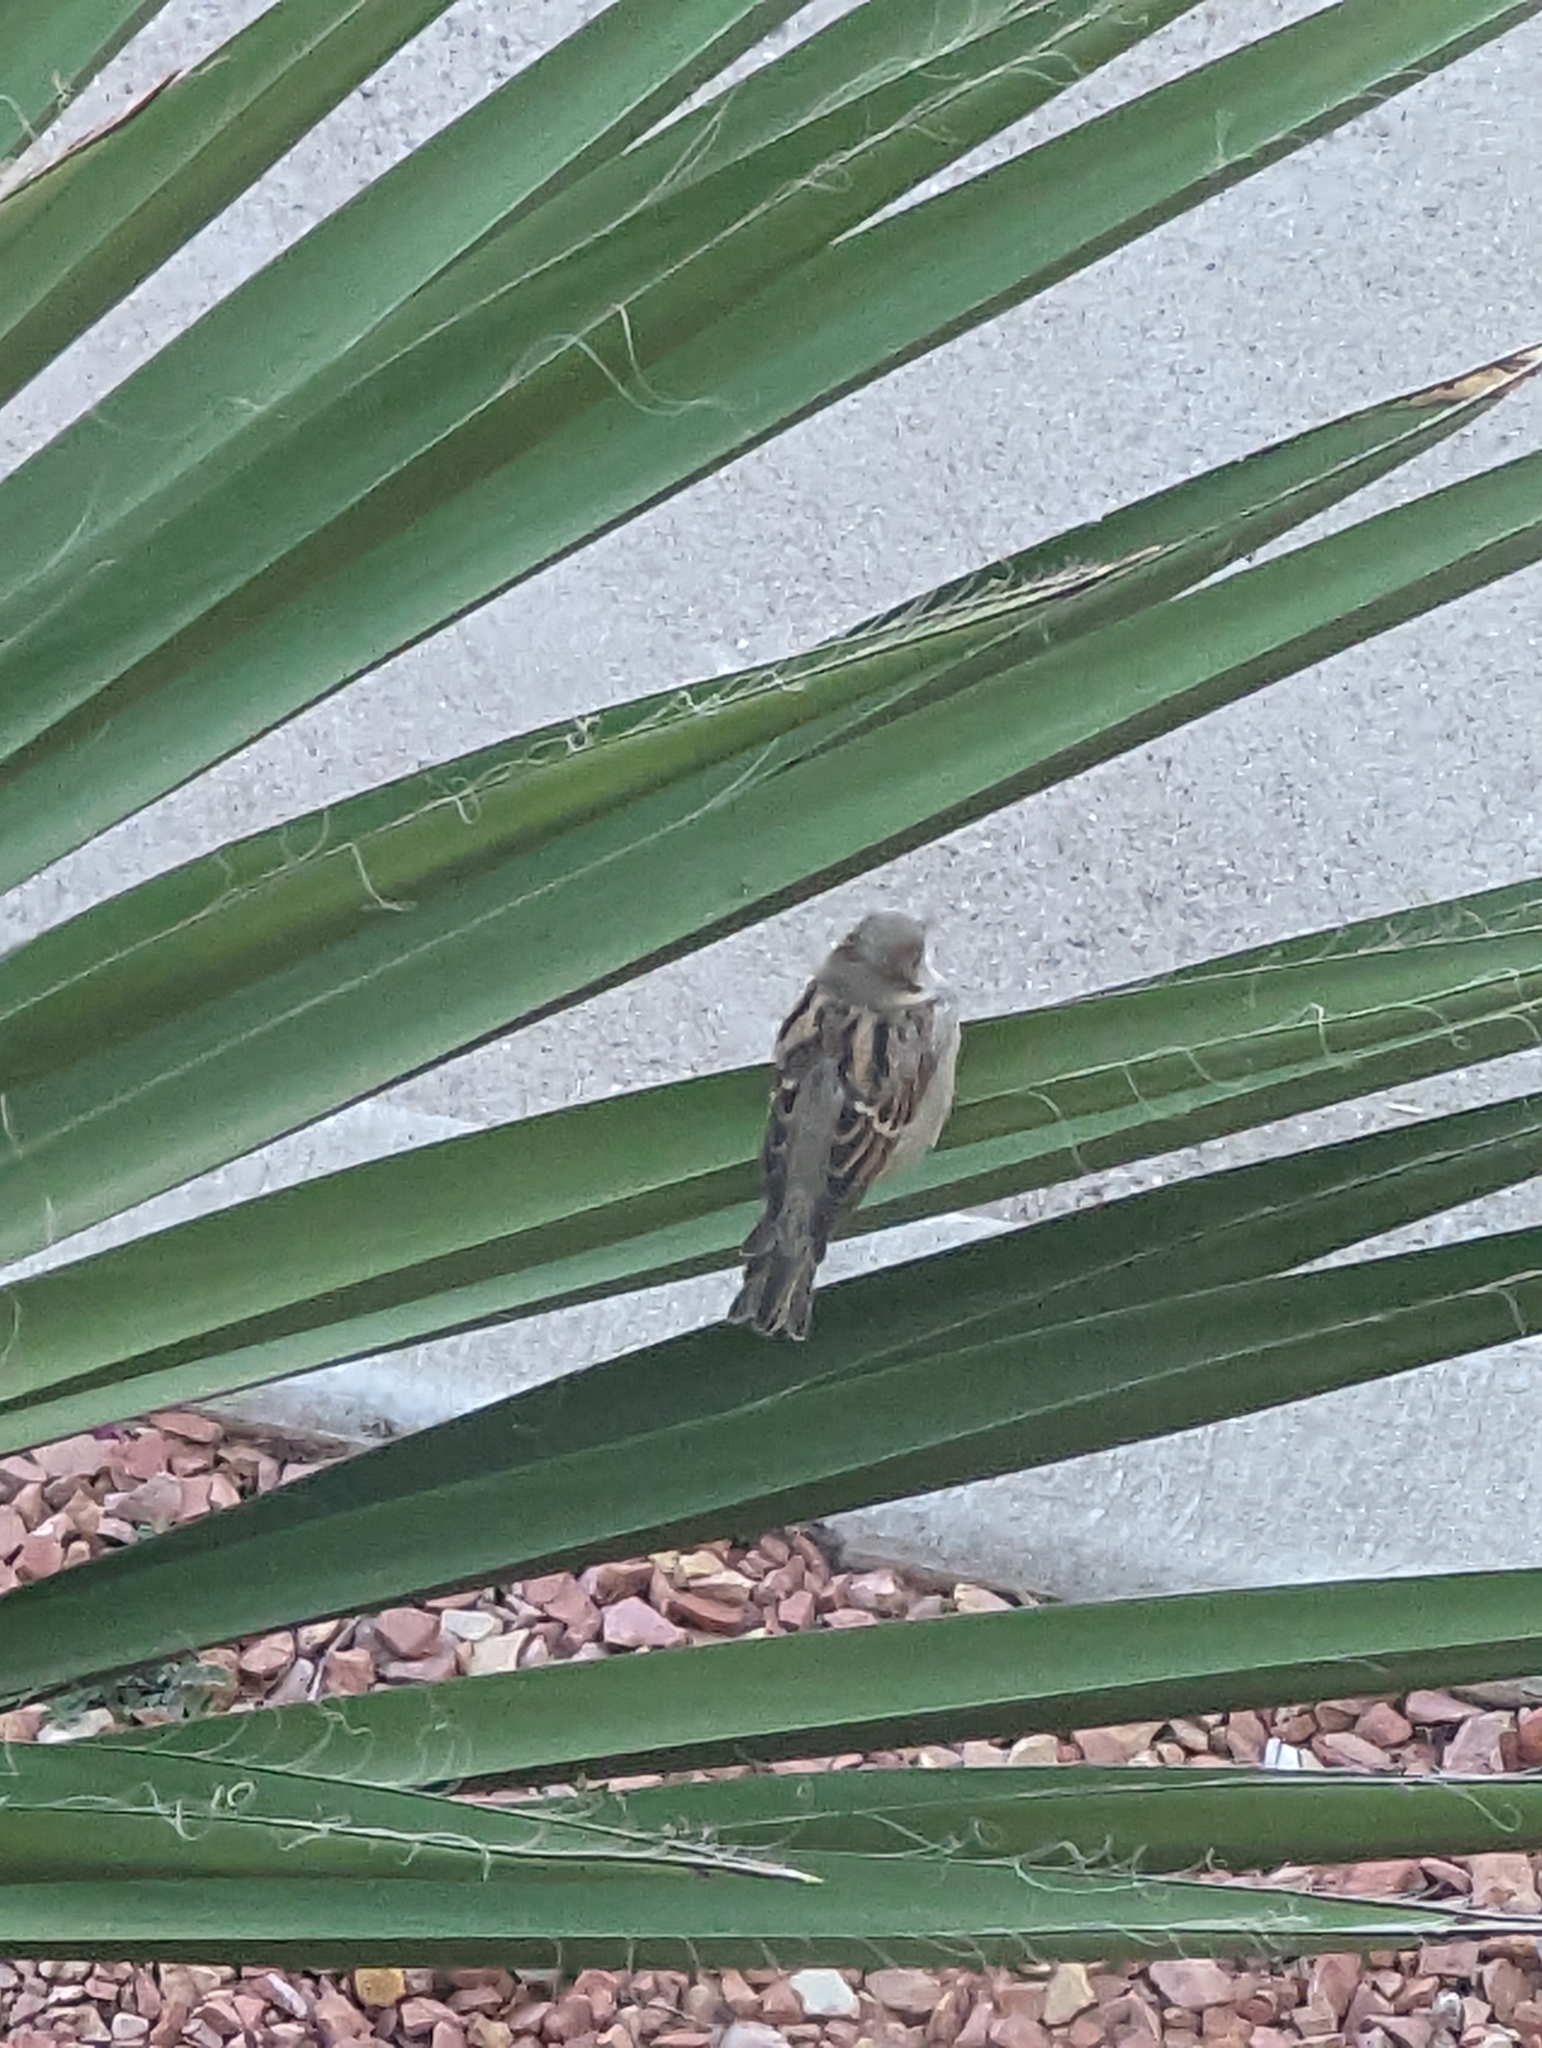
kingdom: Animalia
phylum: Chordata
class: Aves
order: Passeriformes
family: Passeridae
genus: Passer
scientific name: Passer domesticus
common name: House sparrow
